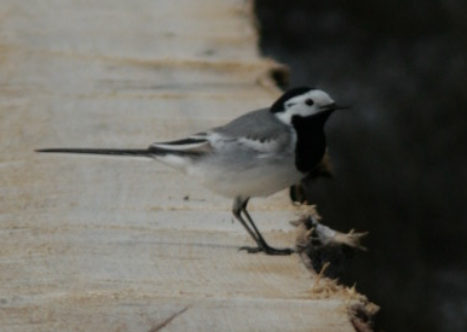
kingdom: Animalia
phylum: Chordata
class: Aves
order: Passeriformes
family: Motacillidae
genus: Motacilla
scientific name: Motacilla alba
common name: White wagtail
